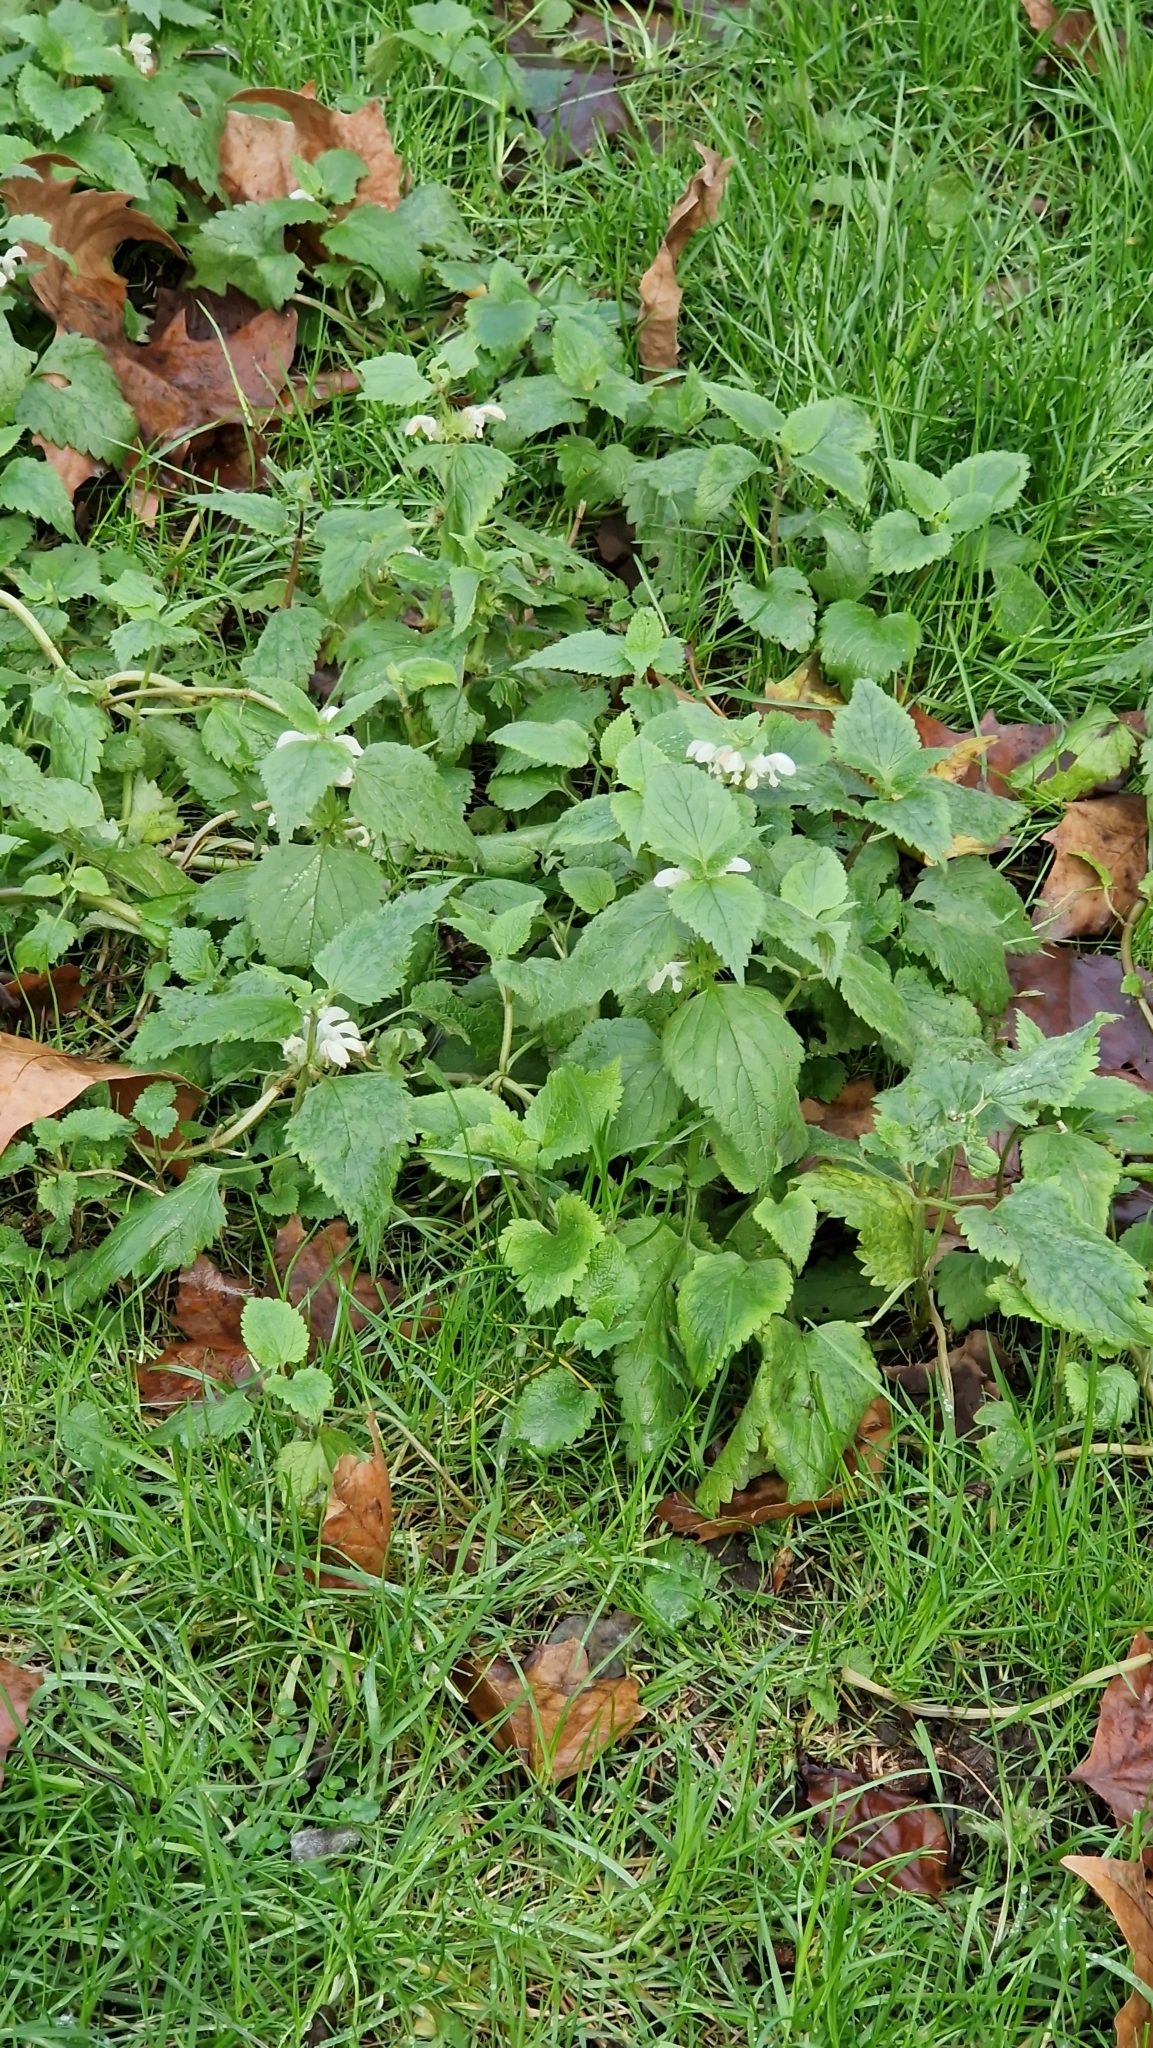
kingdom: Plantae
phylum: Tracheophyta
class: Magnoliopsida
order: Lamiales
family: Lamiaceae
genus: Lamium
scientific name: Lamium album
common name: White dead-nettle
